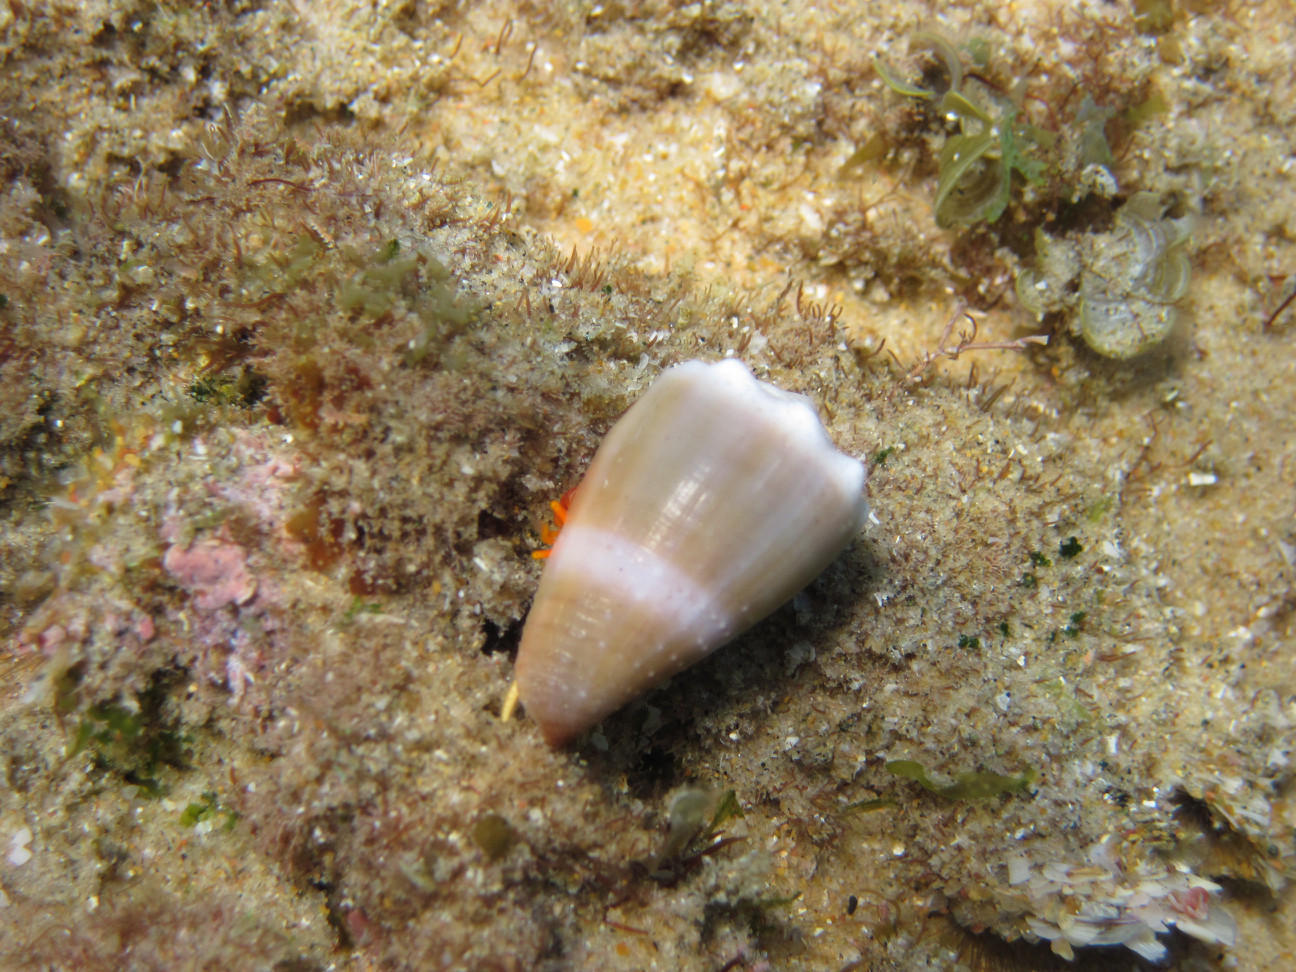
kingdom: Animalia
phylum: Mollusca
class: Gastropoda
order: Neogastropoda
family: Conidae
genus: Conus
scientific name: Conus lividus
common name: Livid cone
